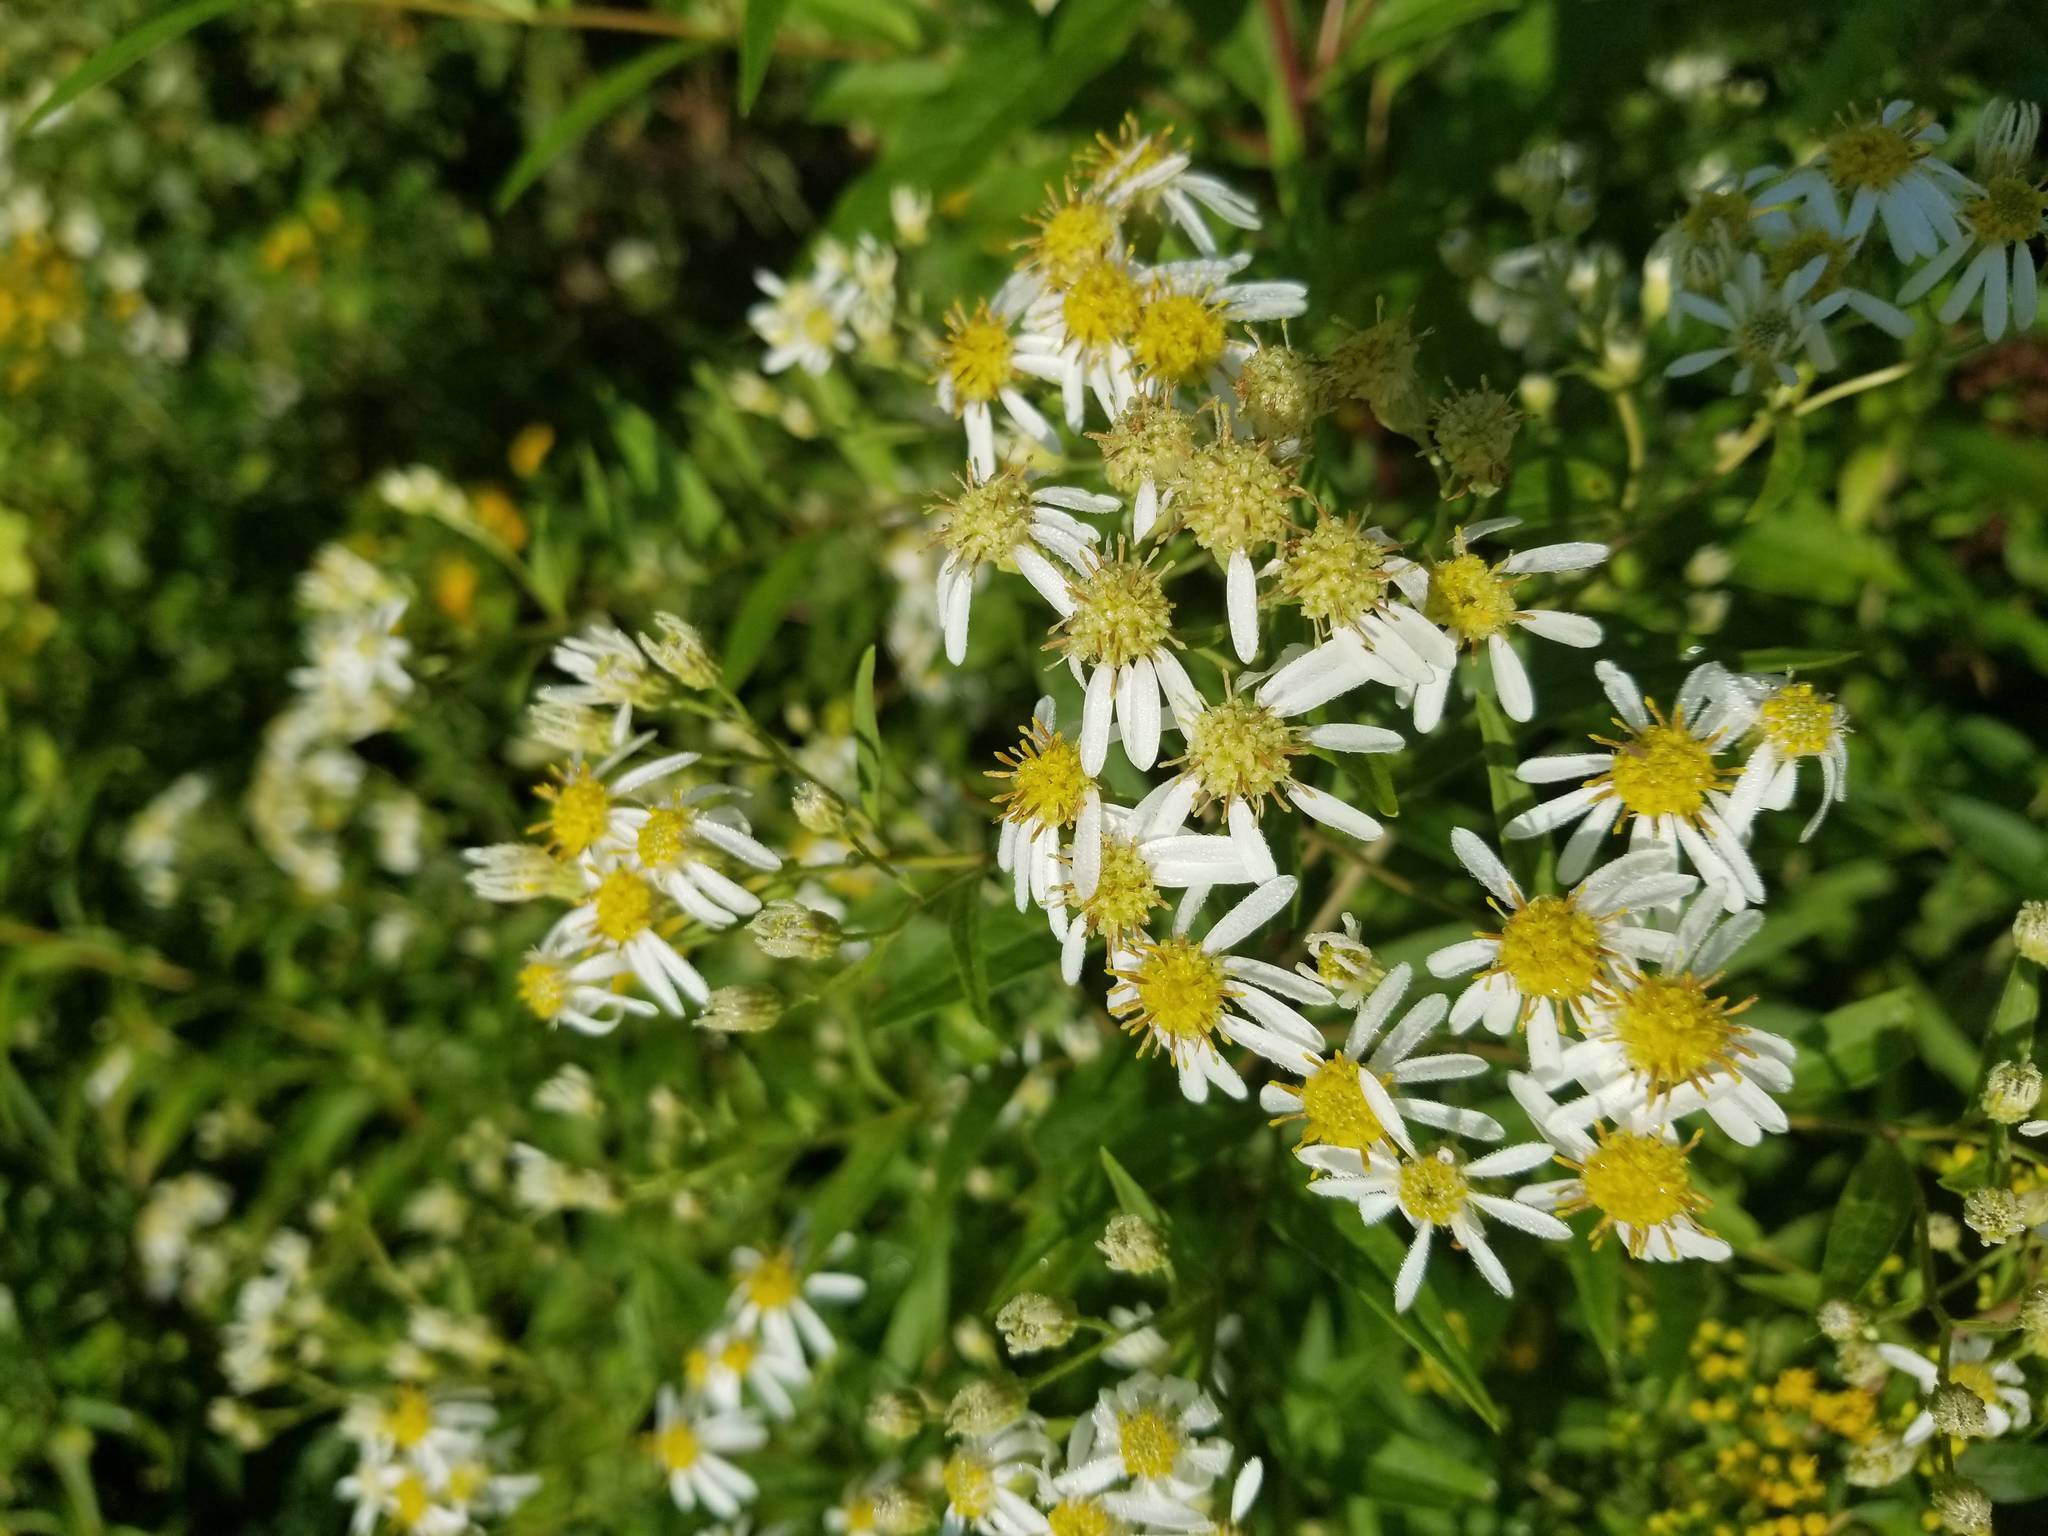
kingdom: Plantae
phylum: Tracheophyta
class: Magnoliopsida
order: Asterales
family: Asteraceae
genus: Doellingeria
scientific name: Doellingeria umbellata
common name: Flat-top white aster
